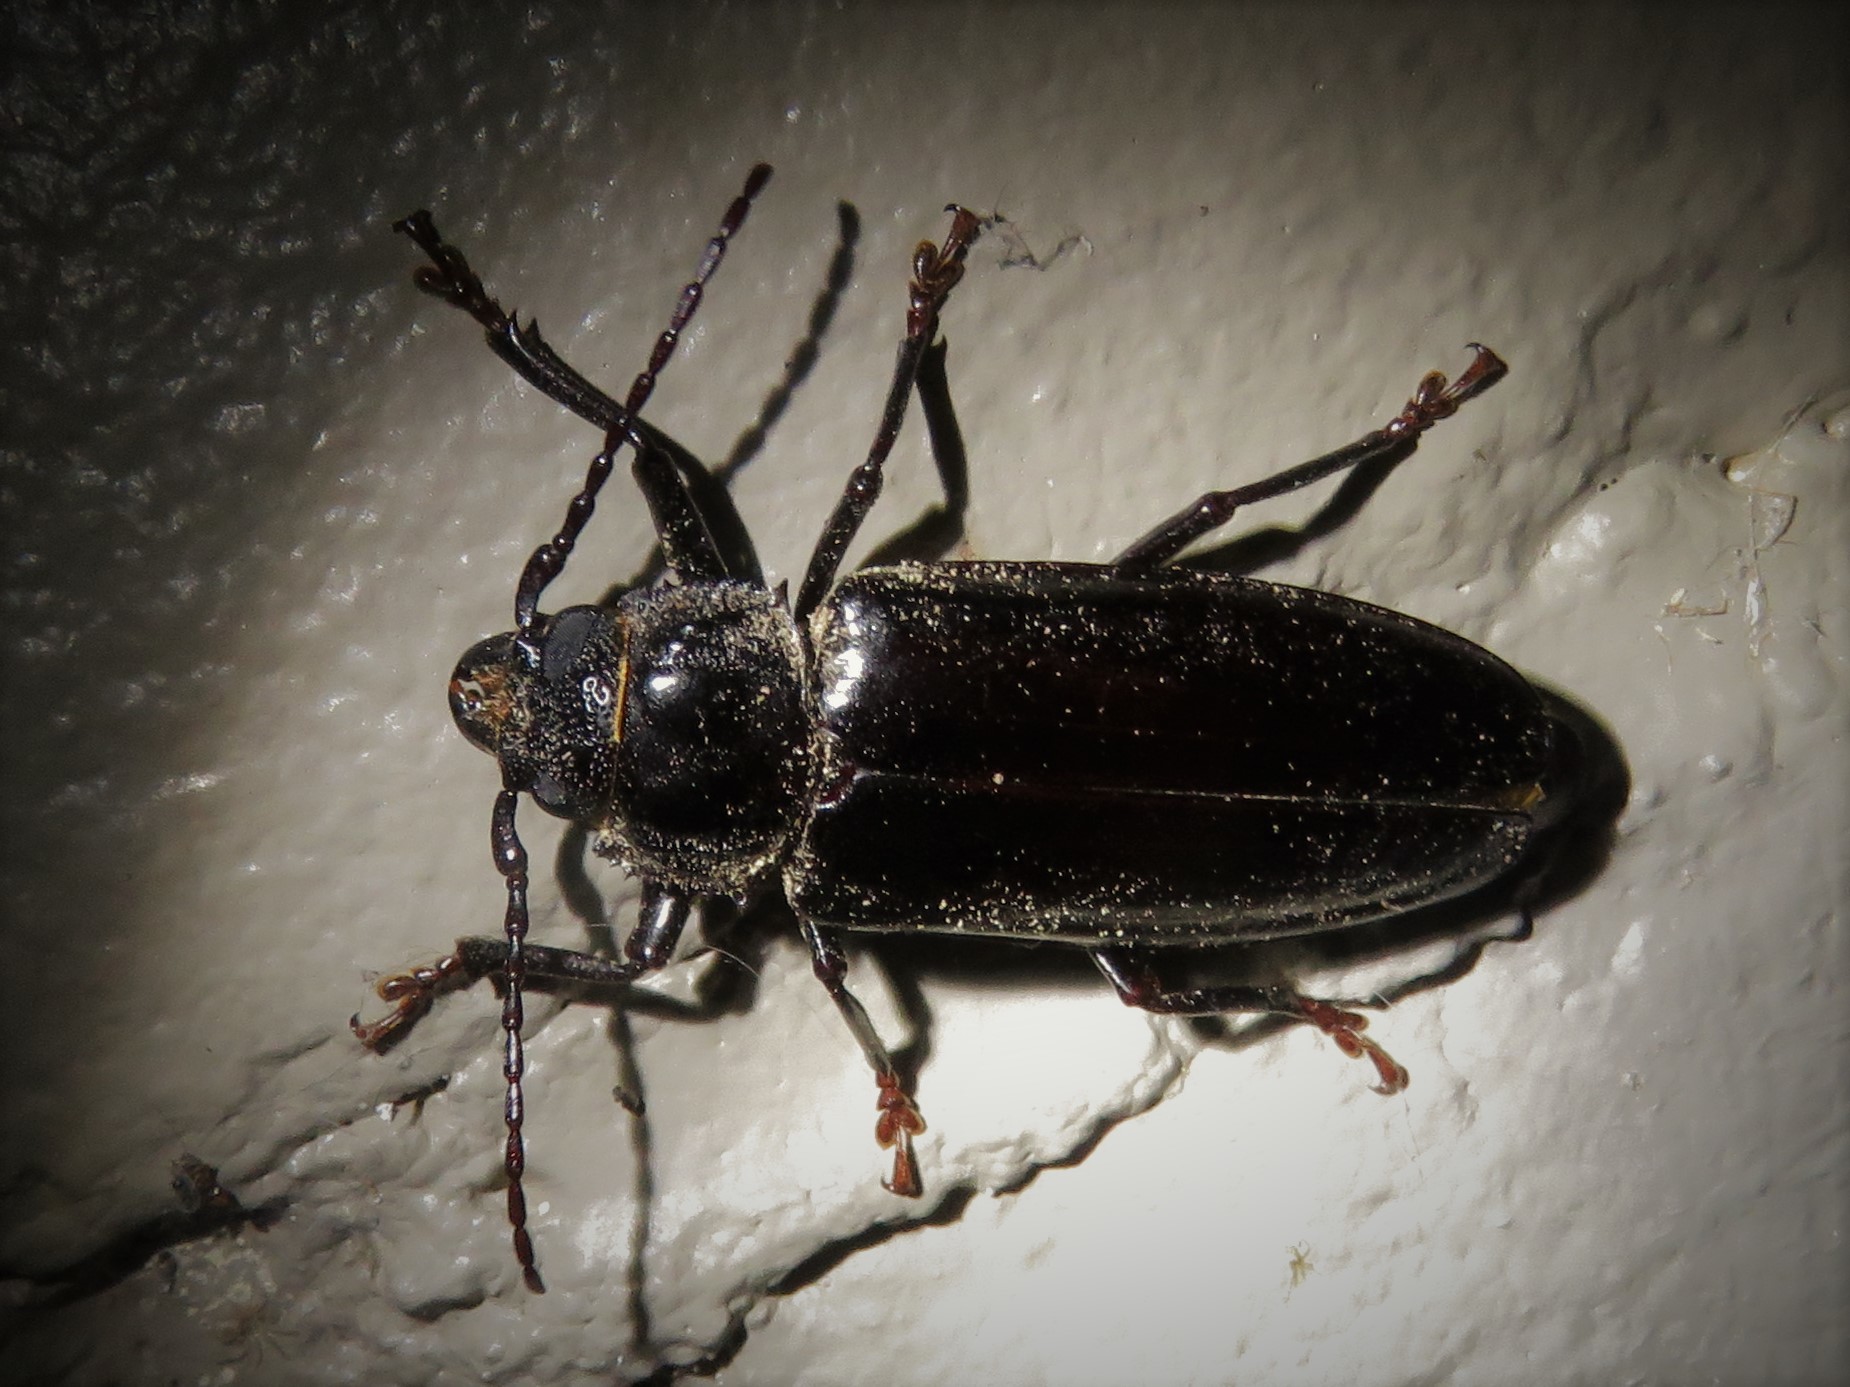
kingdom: Animalia
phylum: Arthropoda
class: Insecta
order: Coleoptera
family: Cerambycidae
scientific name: Cerambycidae
